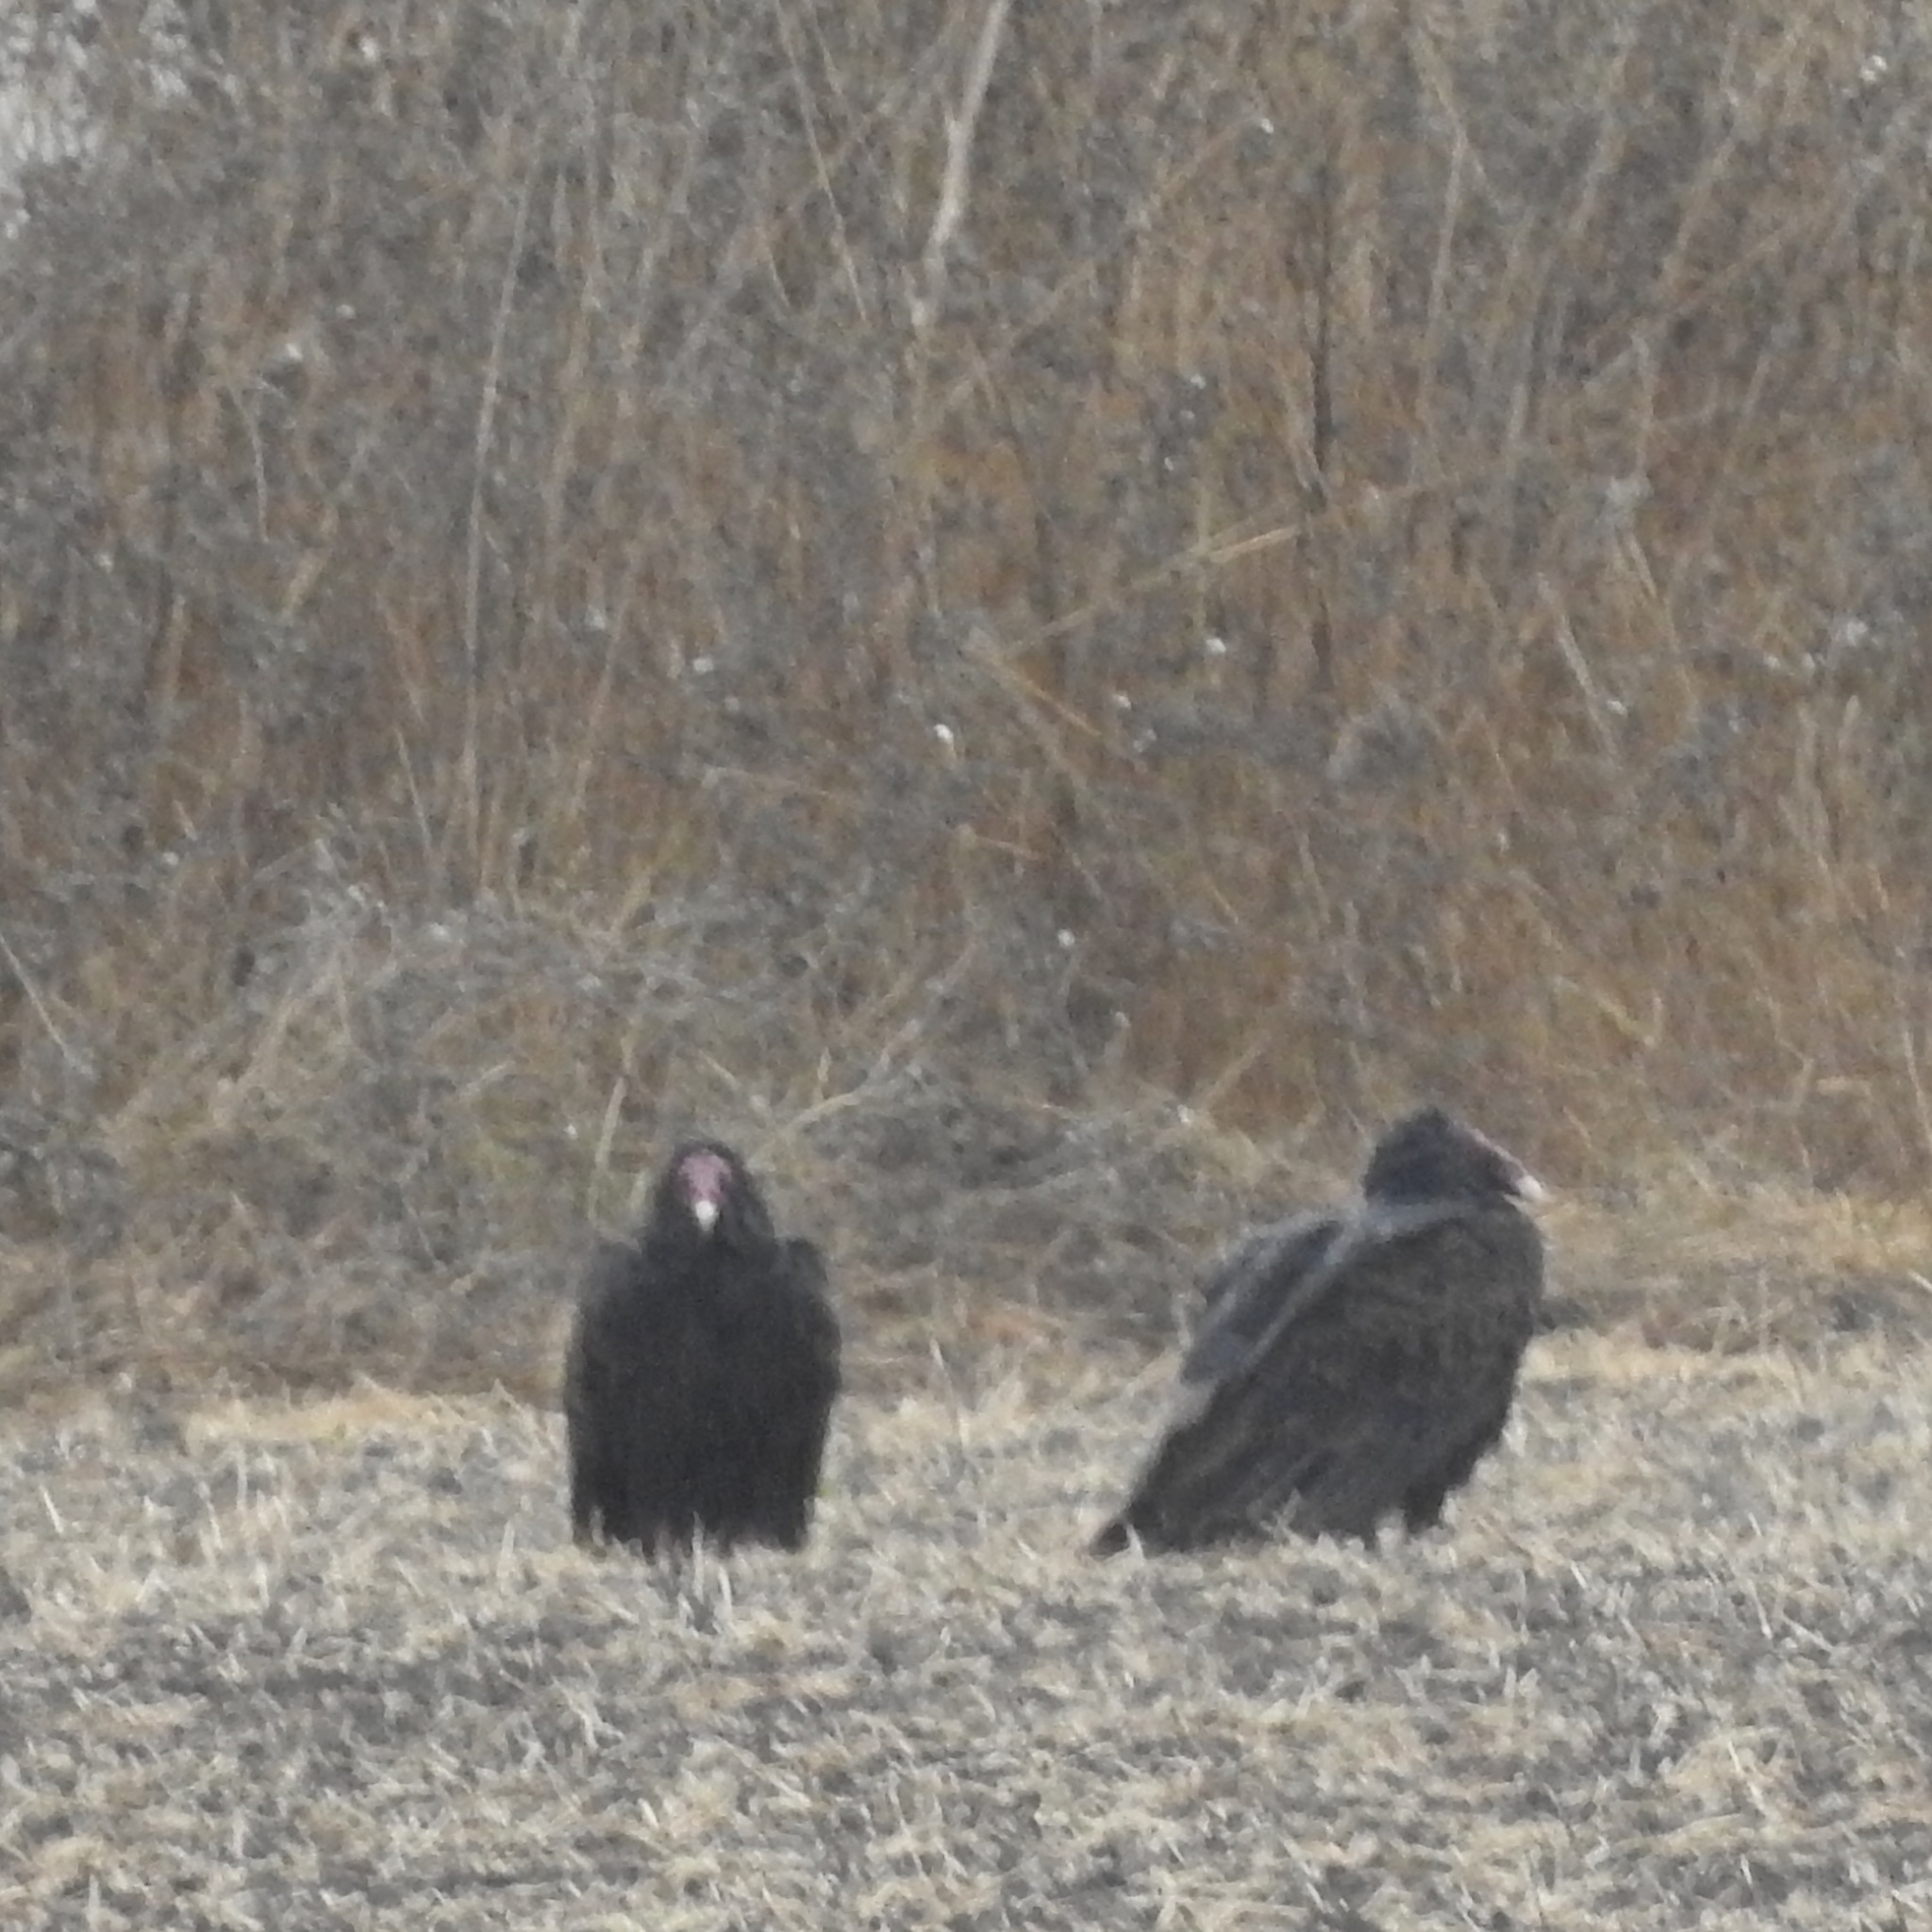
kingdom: Animalia
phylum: Chordata
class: Aves
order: Accipitriformes
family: Cathartidae
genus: Cathartes
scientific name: Cathartes aura
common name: Turkey vulture
